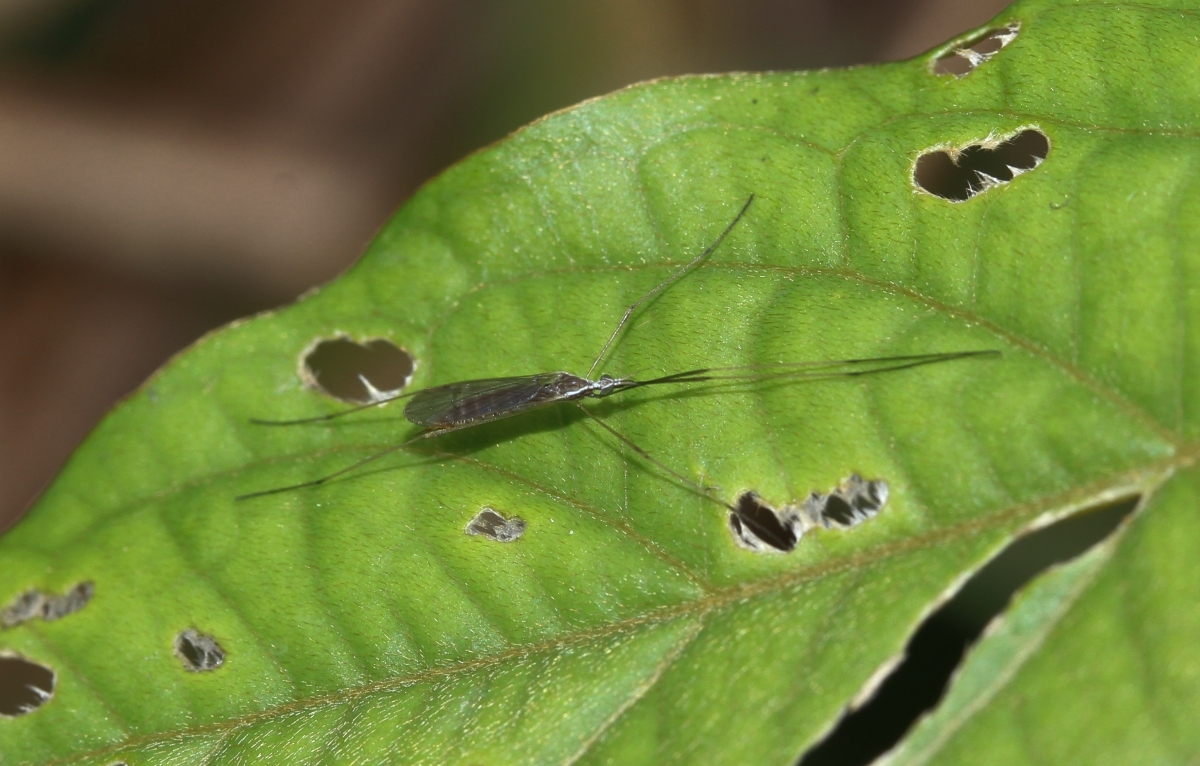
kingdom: Animalia
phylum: Arthropoda
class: Insecta
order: Diptera
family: Limoniidae
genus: Gonomyia
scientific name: Gonomyia
